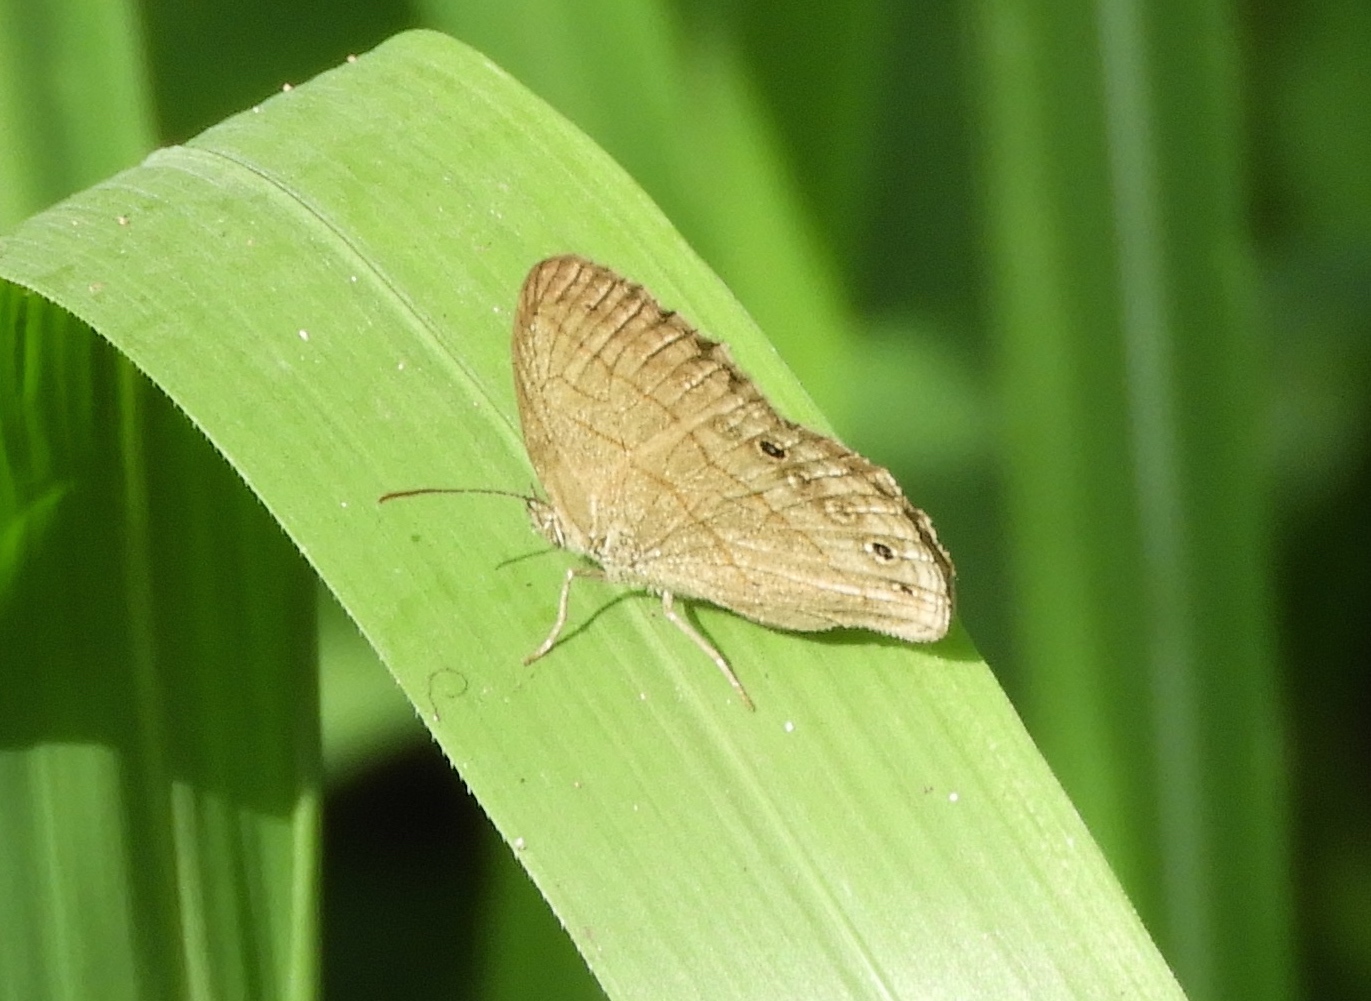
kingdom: Animalia
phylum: Arthropoda
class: Insecta
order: Lepidoptera
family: Nymphalidae
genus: Hermeuptychia
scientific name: Hermeuptychia hermes
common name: Hermes satyr
